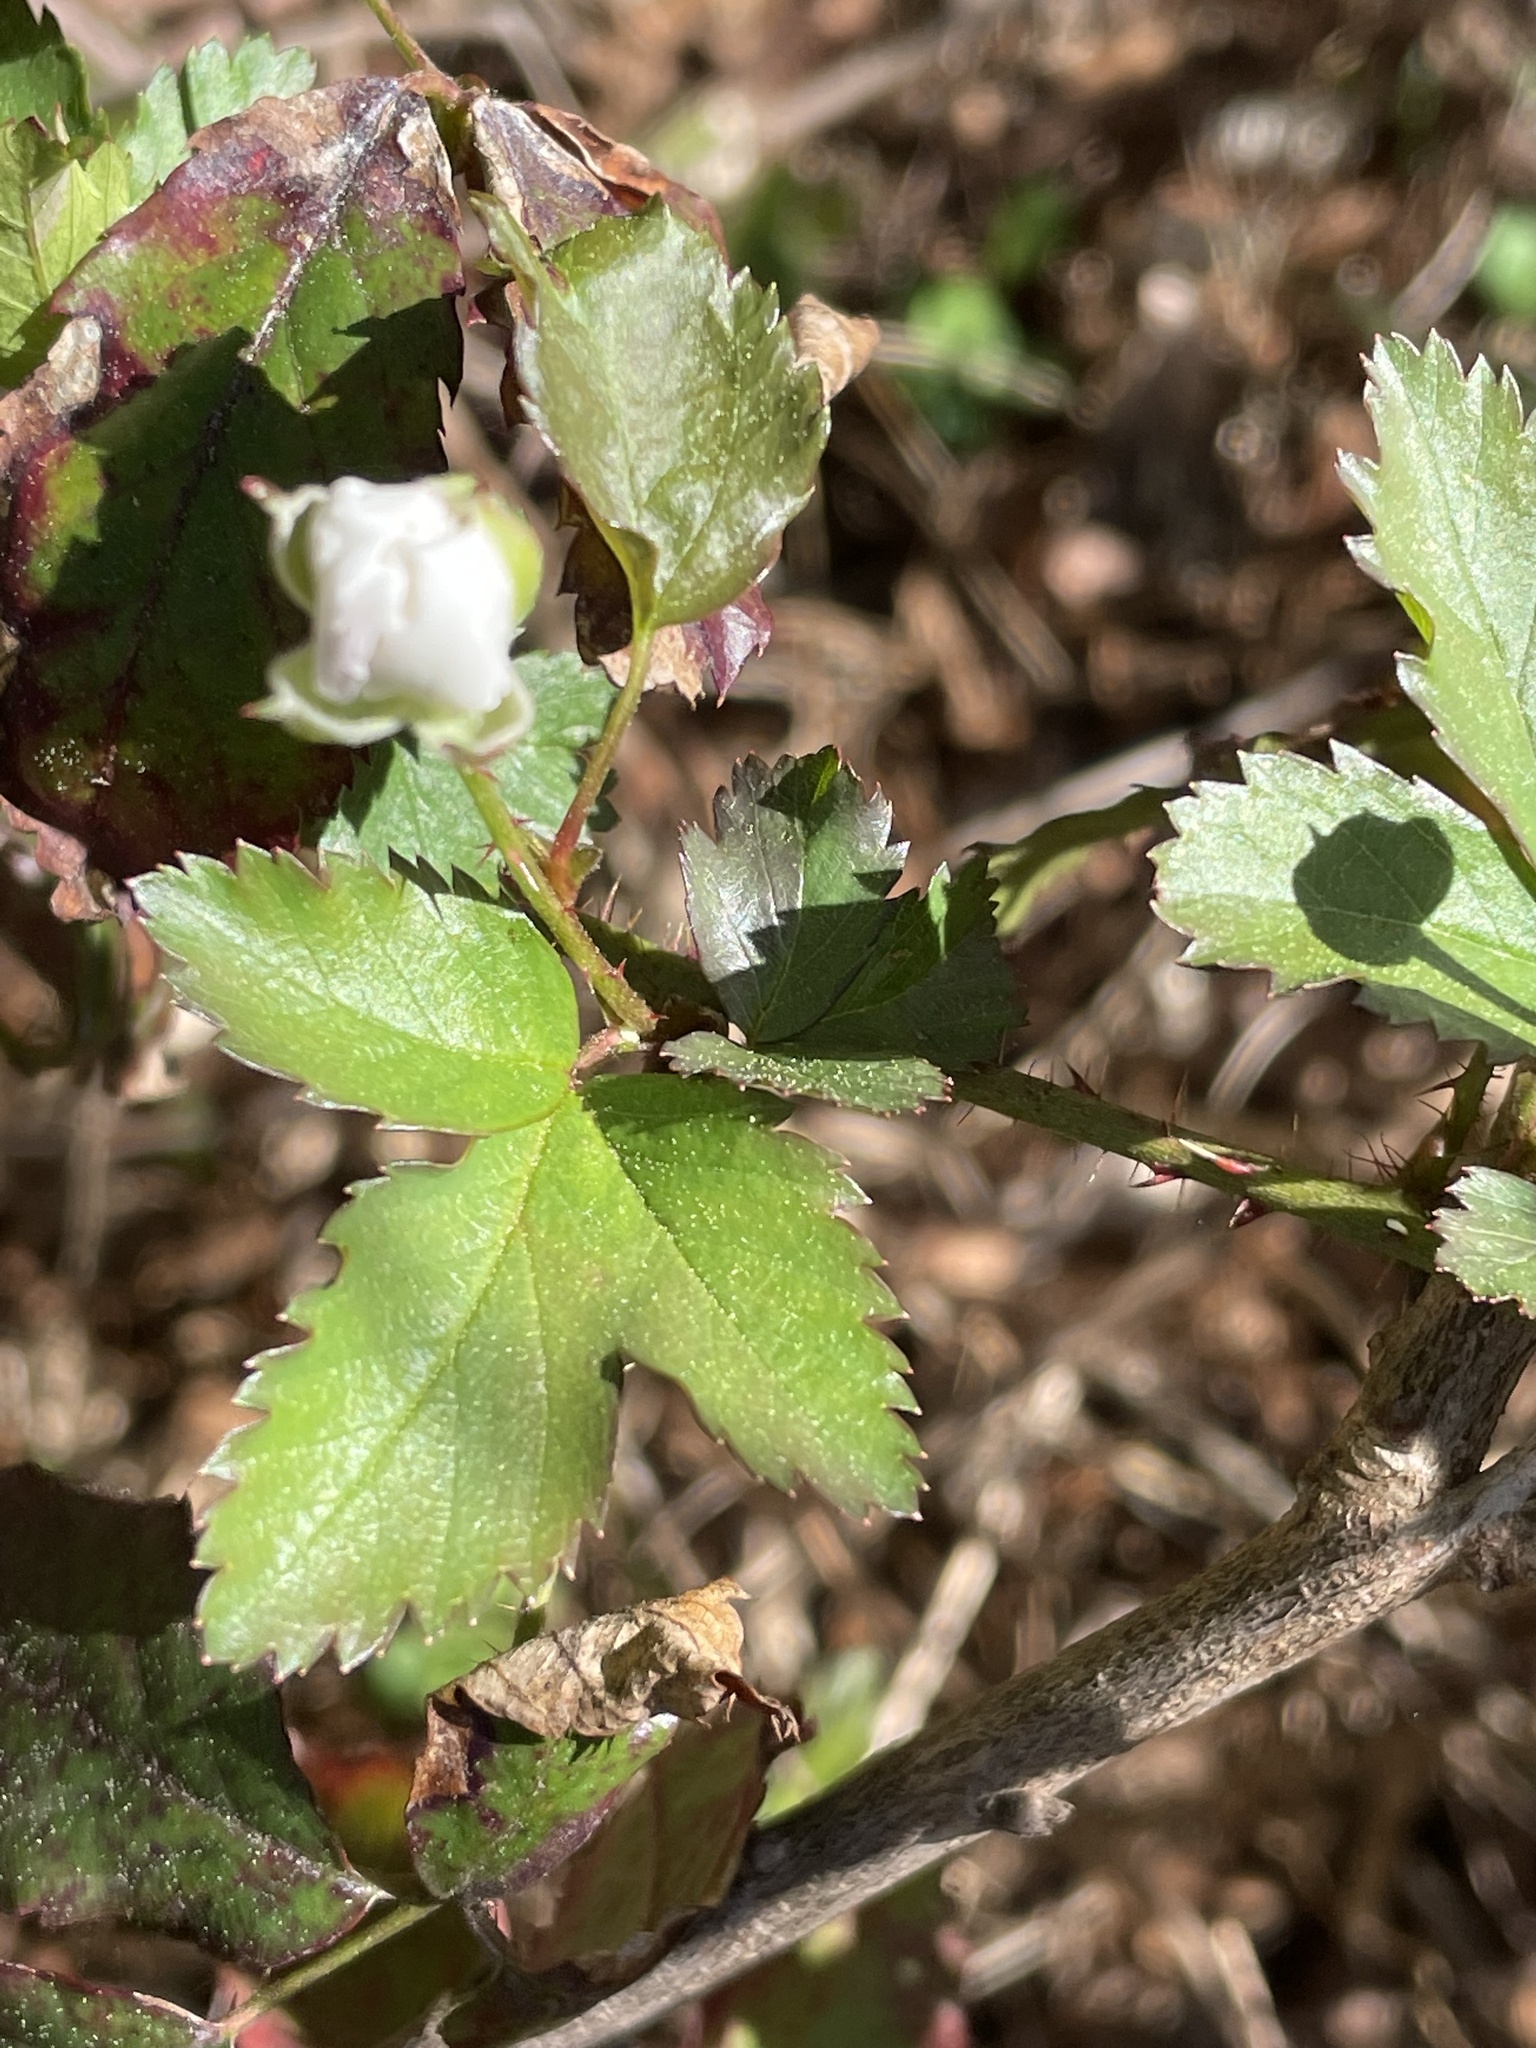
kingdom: Plantae
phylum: Tracheophyta
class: Magnoliopsida
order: Rosales
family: Rosaceae
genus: Rubus
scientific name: Rubus trivialis
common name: Southern dewberry
